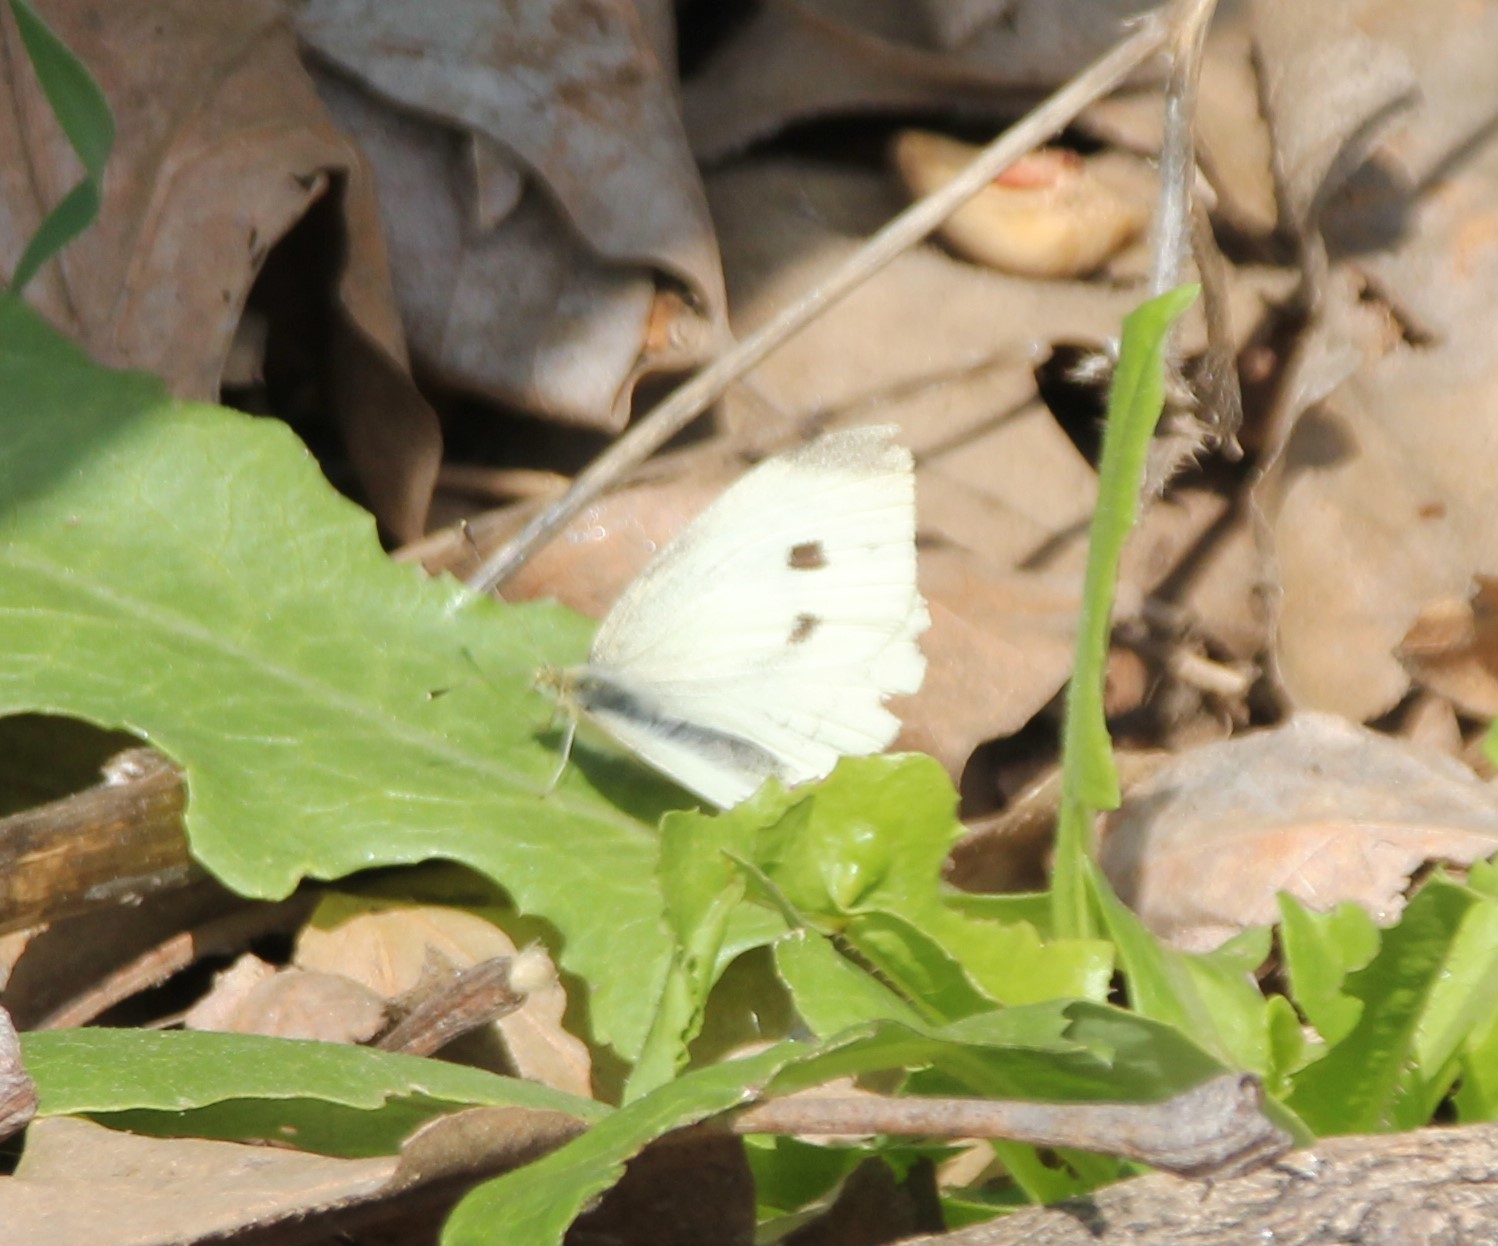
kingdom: Animalia
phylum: Arthropoda
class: Insecta
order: Lepidoptera
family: Pieridae
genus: Pieris
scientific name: Pieris rapae
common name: Small white
